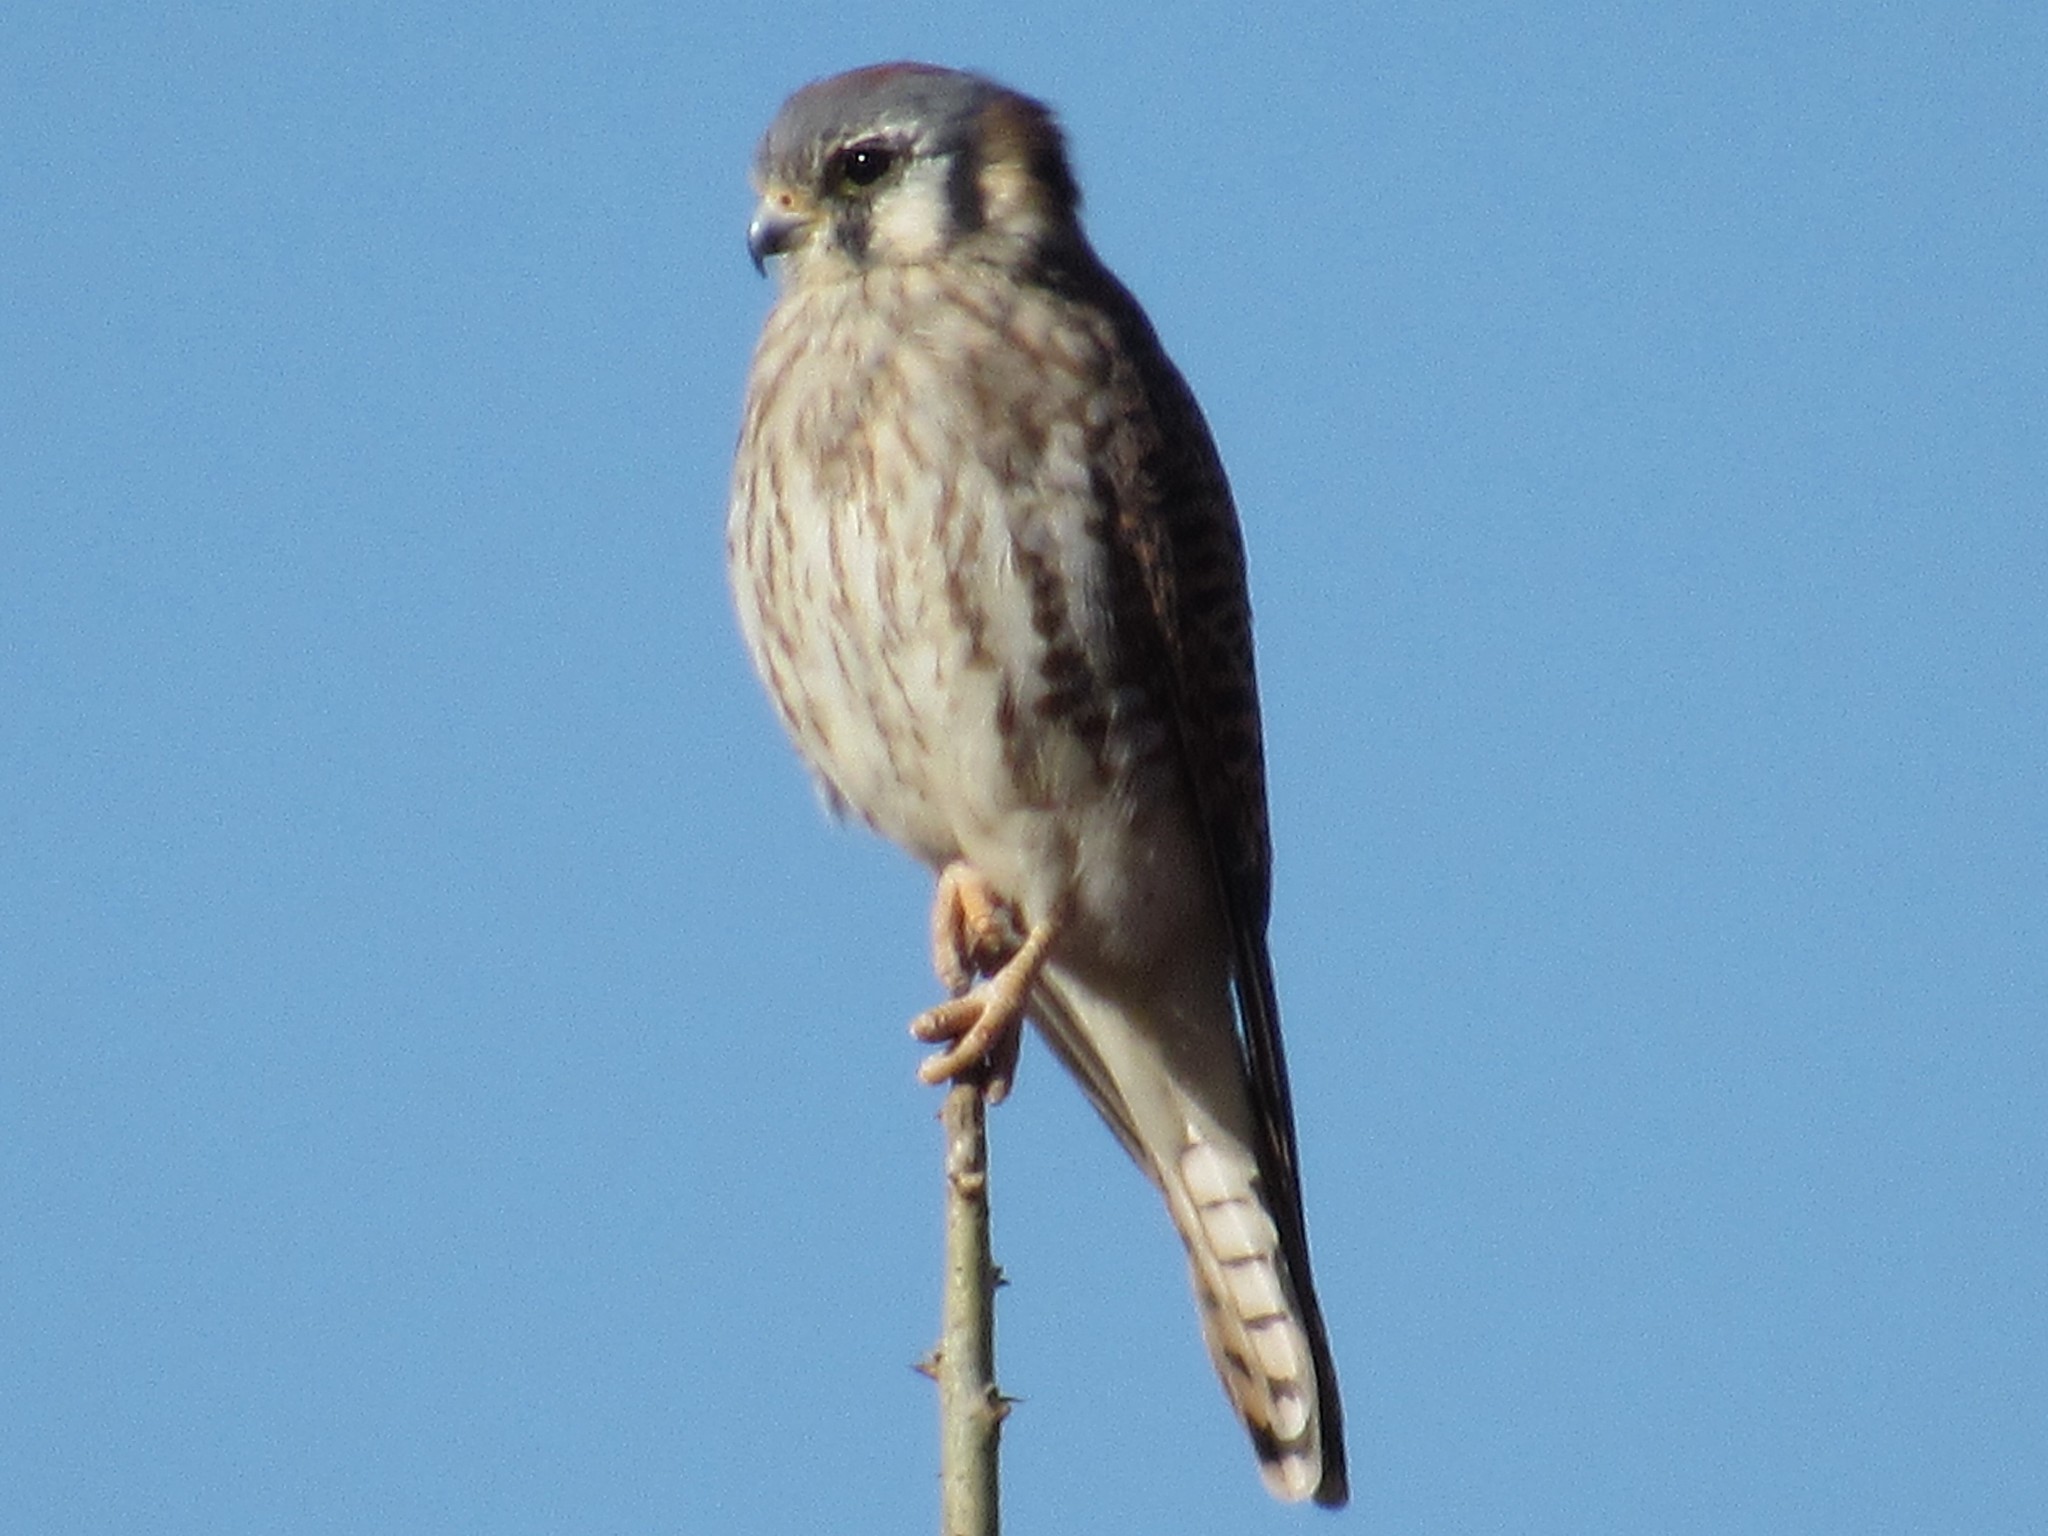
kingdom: Animalia
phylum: Chordata
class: Aves
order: Falconiformes
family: Falconidae
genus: Falco
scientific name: Falco sparverius
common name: American kestrel
